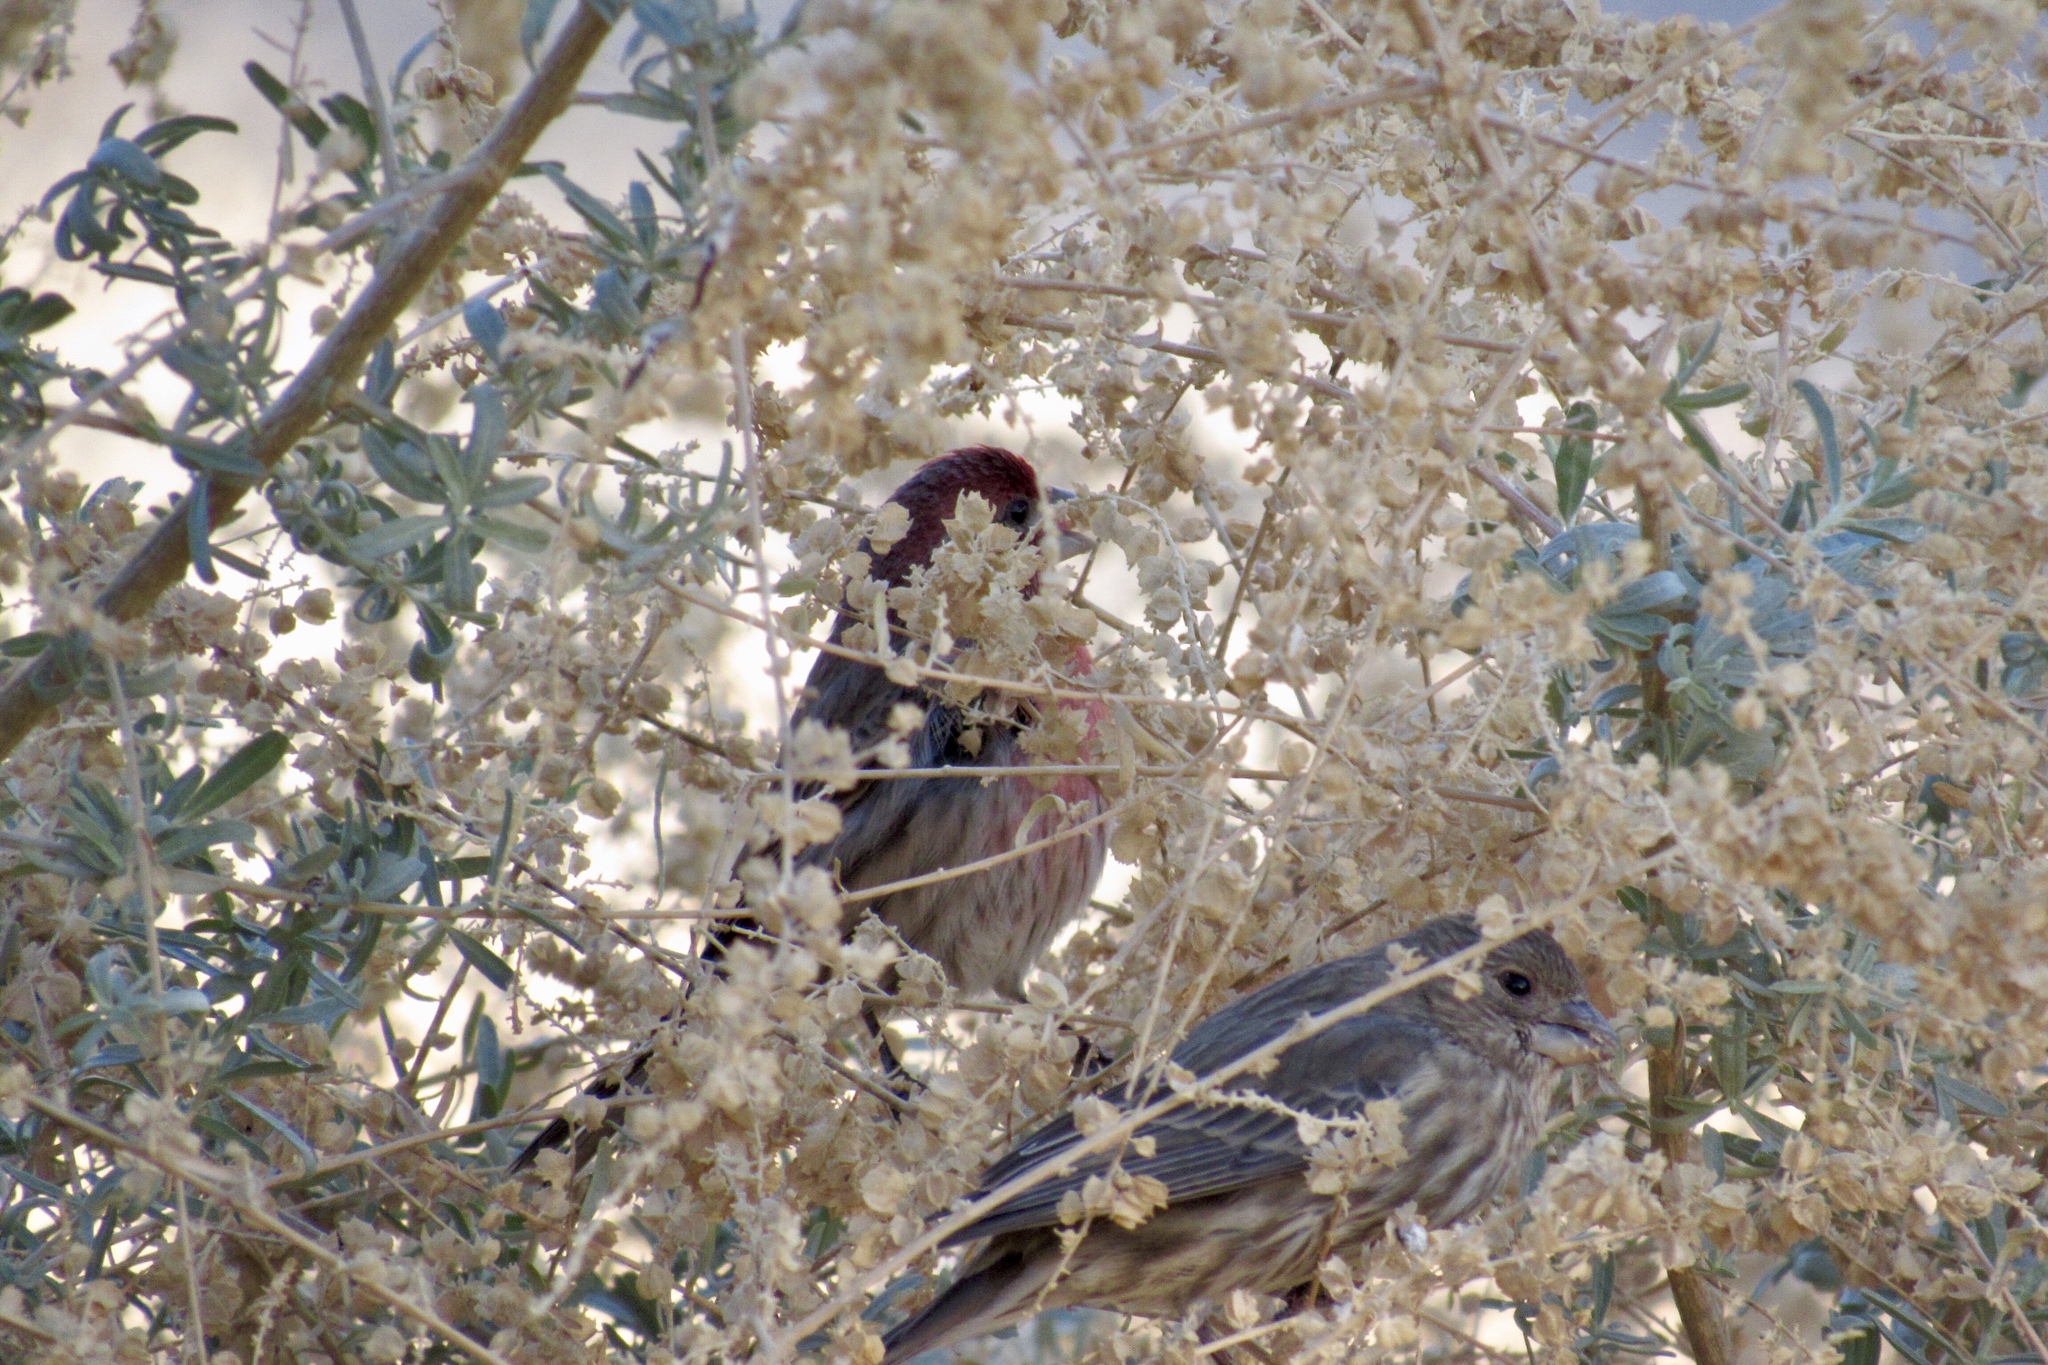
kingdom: Animalia
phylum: Chordata
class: Aves
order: Passeriformes
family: Fringillidae
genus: Haemorhous
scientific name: Haemorhous mexicanus
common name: House finch
